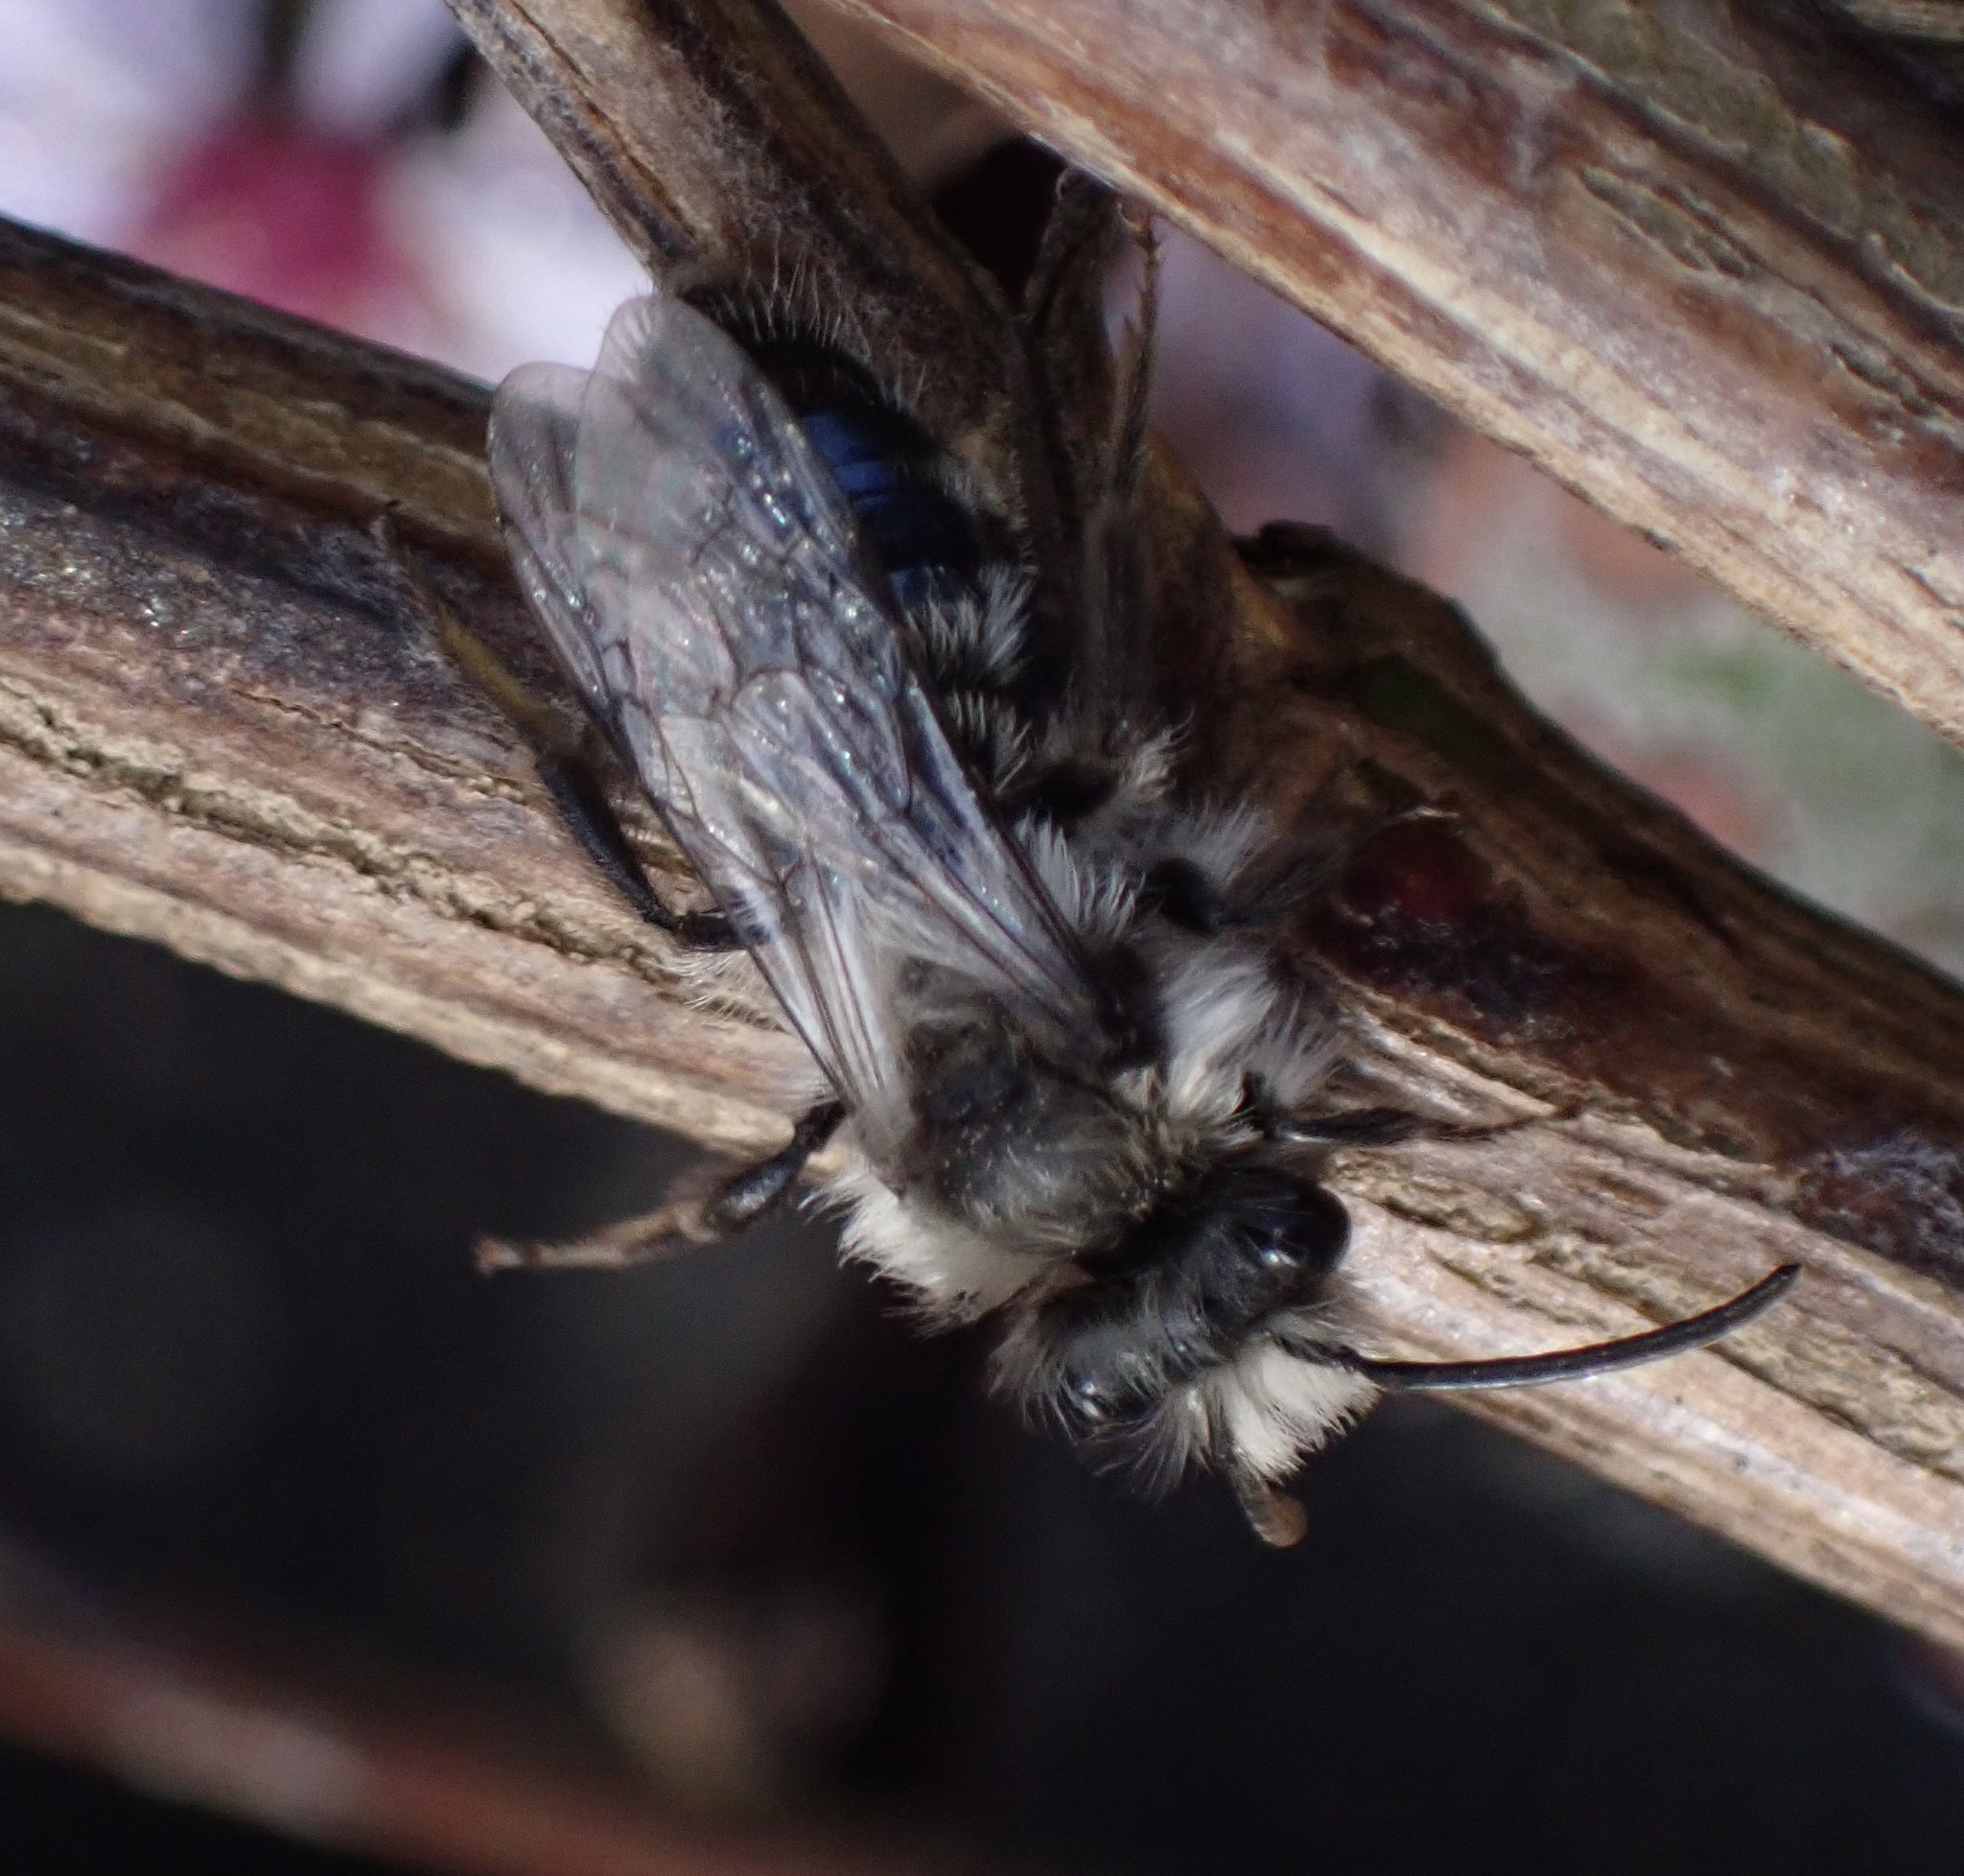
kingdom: Animalia
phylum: Arthropoda
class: Insecta
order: Hymenoptera
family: Andrenidae
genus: Andrena
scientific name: Andrena cineraria
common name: Ashy mining bee
